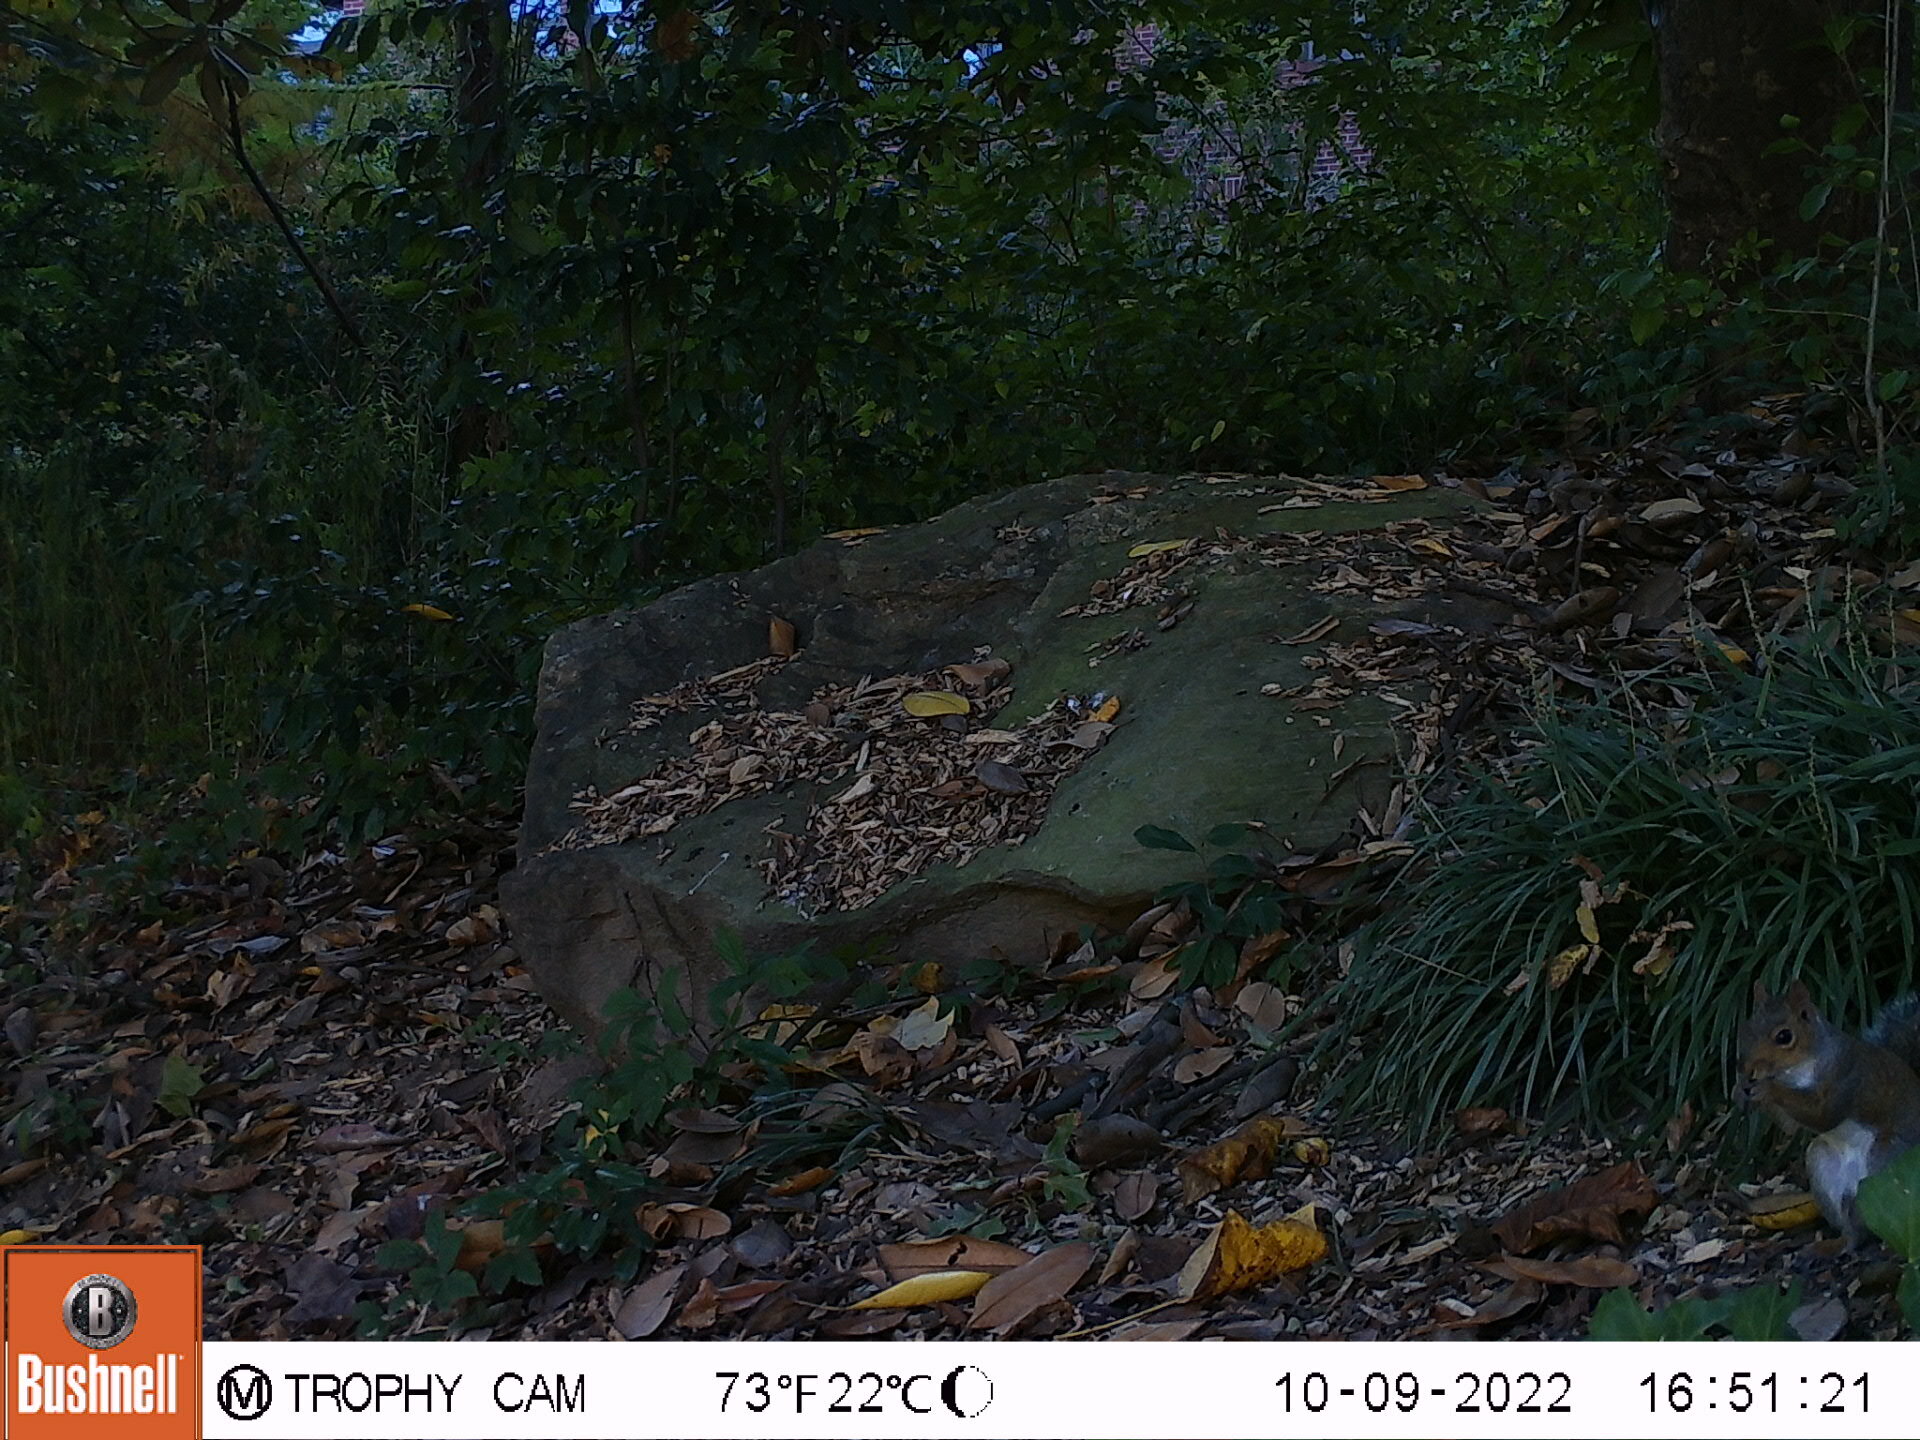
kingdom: Animalia
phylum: Chordata
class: Mammalia
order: Rodentia
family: Sciuridae
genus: Sciurus
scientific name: Sciurus carolinensis
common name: Eastern gray squirrel
